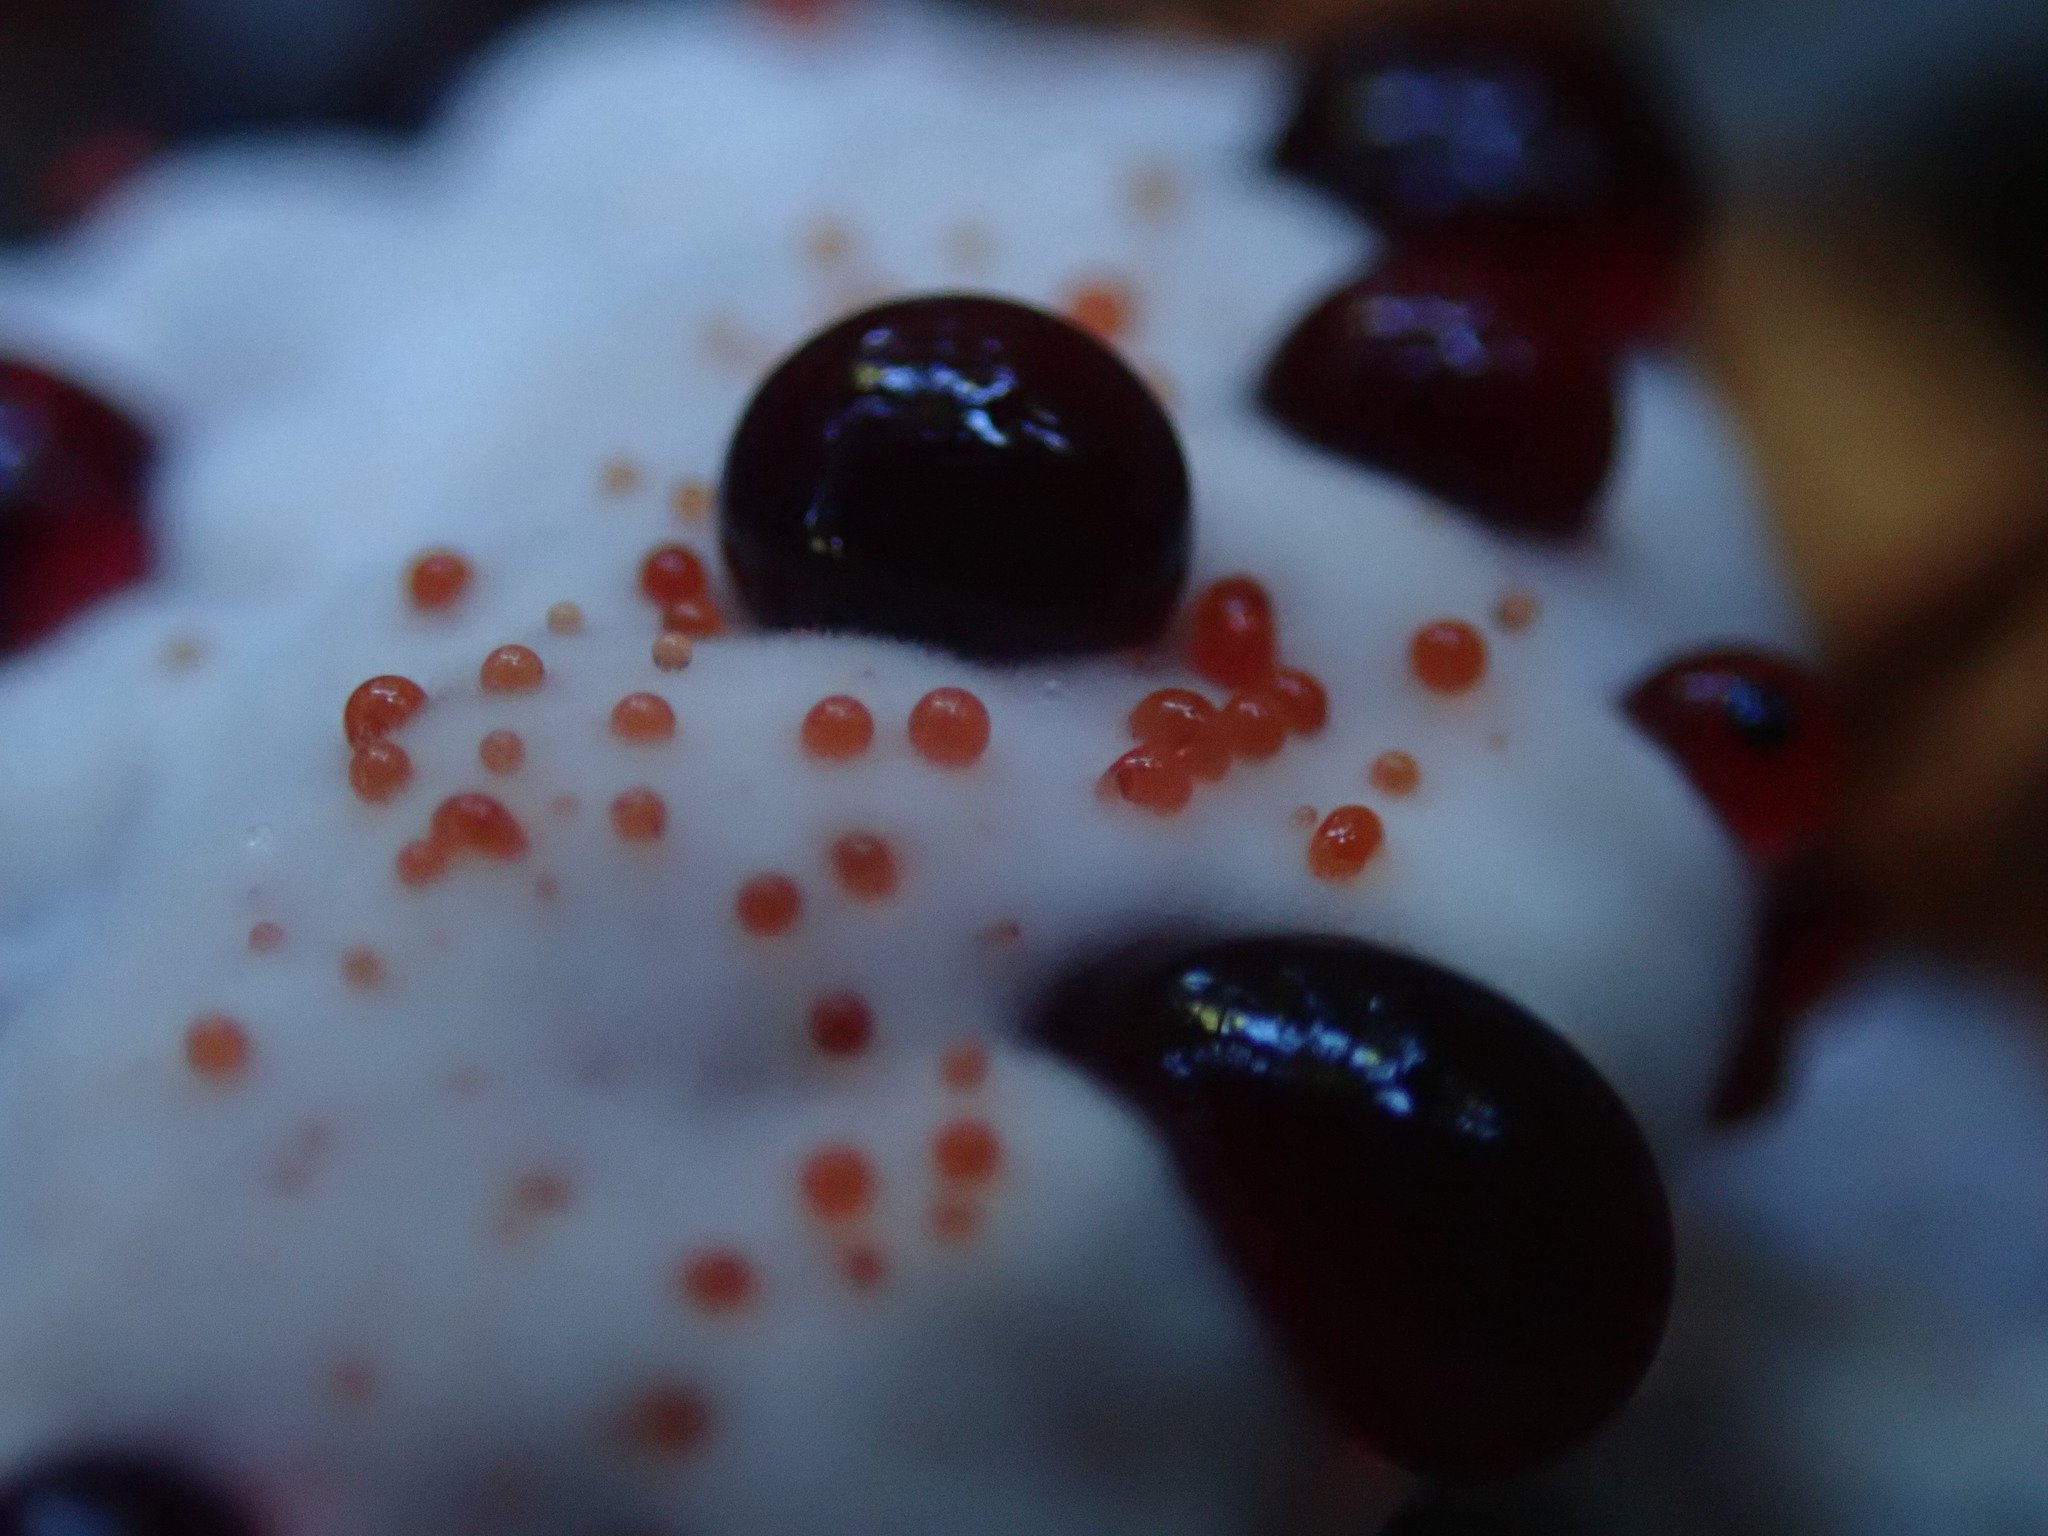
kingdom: Fungi
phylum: Basidiomycota
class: Agaricomycetes
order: Thelephorales
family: Bankeraceae
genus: Hydnellum
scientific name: Hydnellum peckii
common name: Devil's tooth
